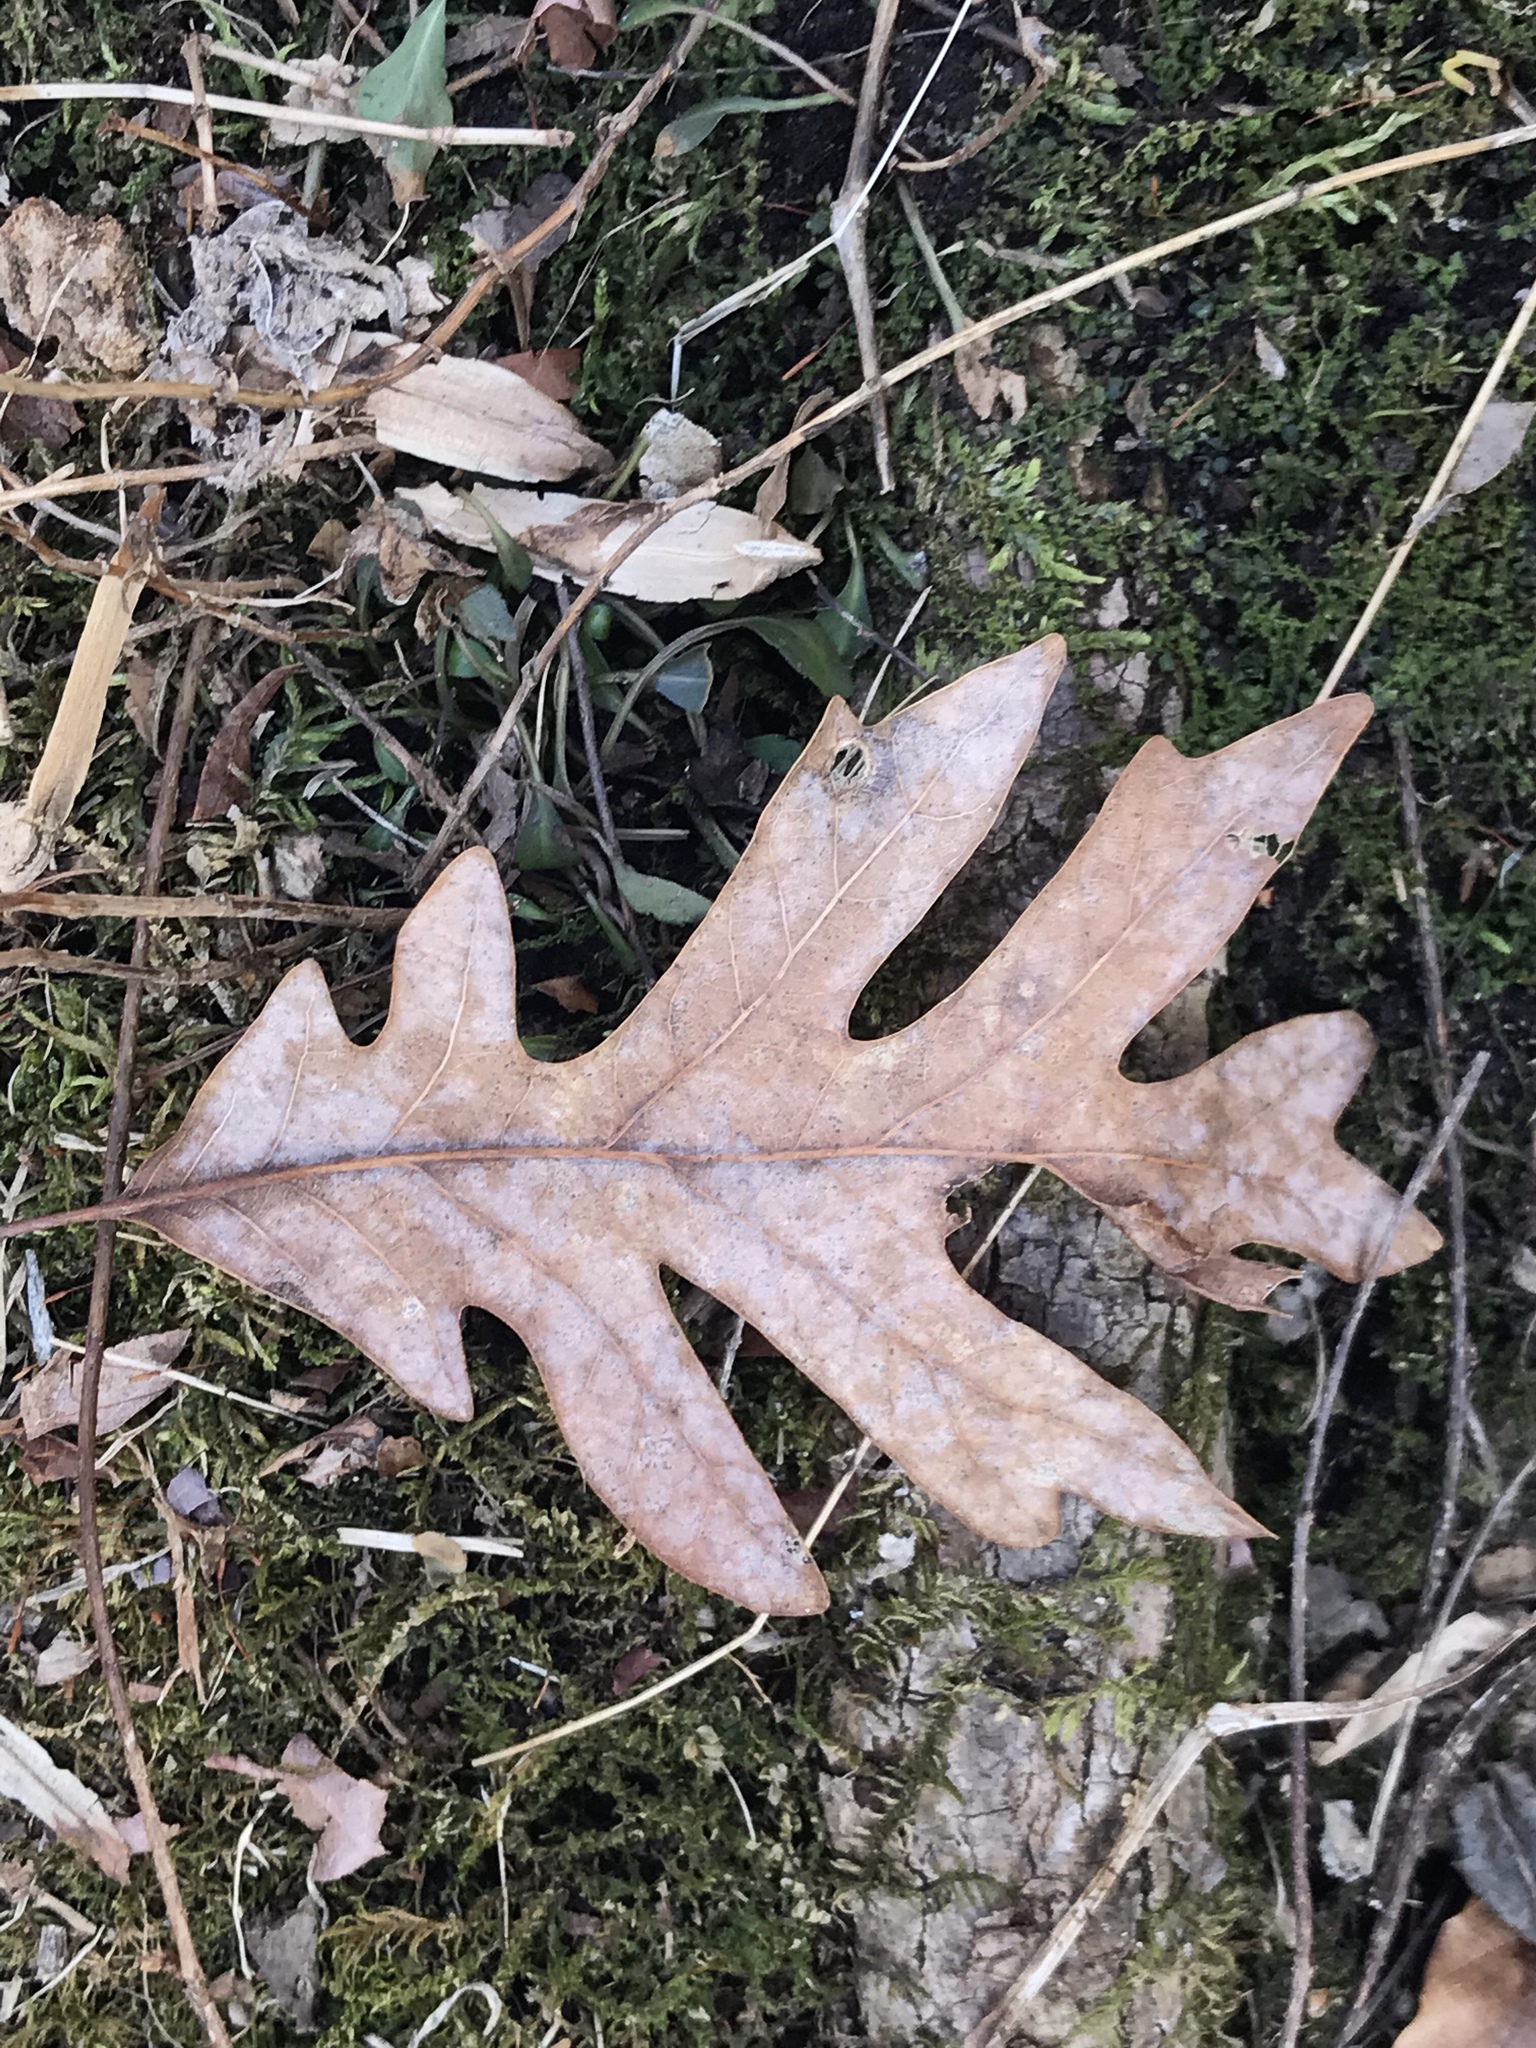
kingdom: Plantae
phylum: Tracheophyta
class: Magnoliopsida
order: Fagales
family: Fagaceae
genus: Quercus
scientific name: Quercus alba
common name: White oak
